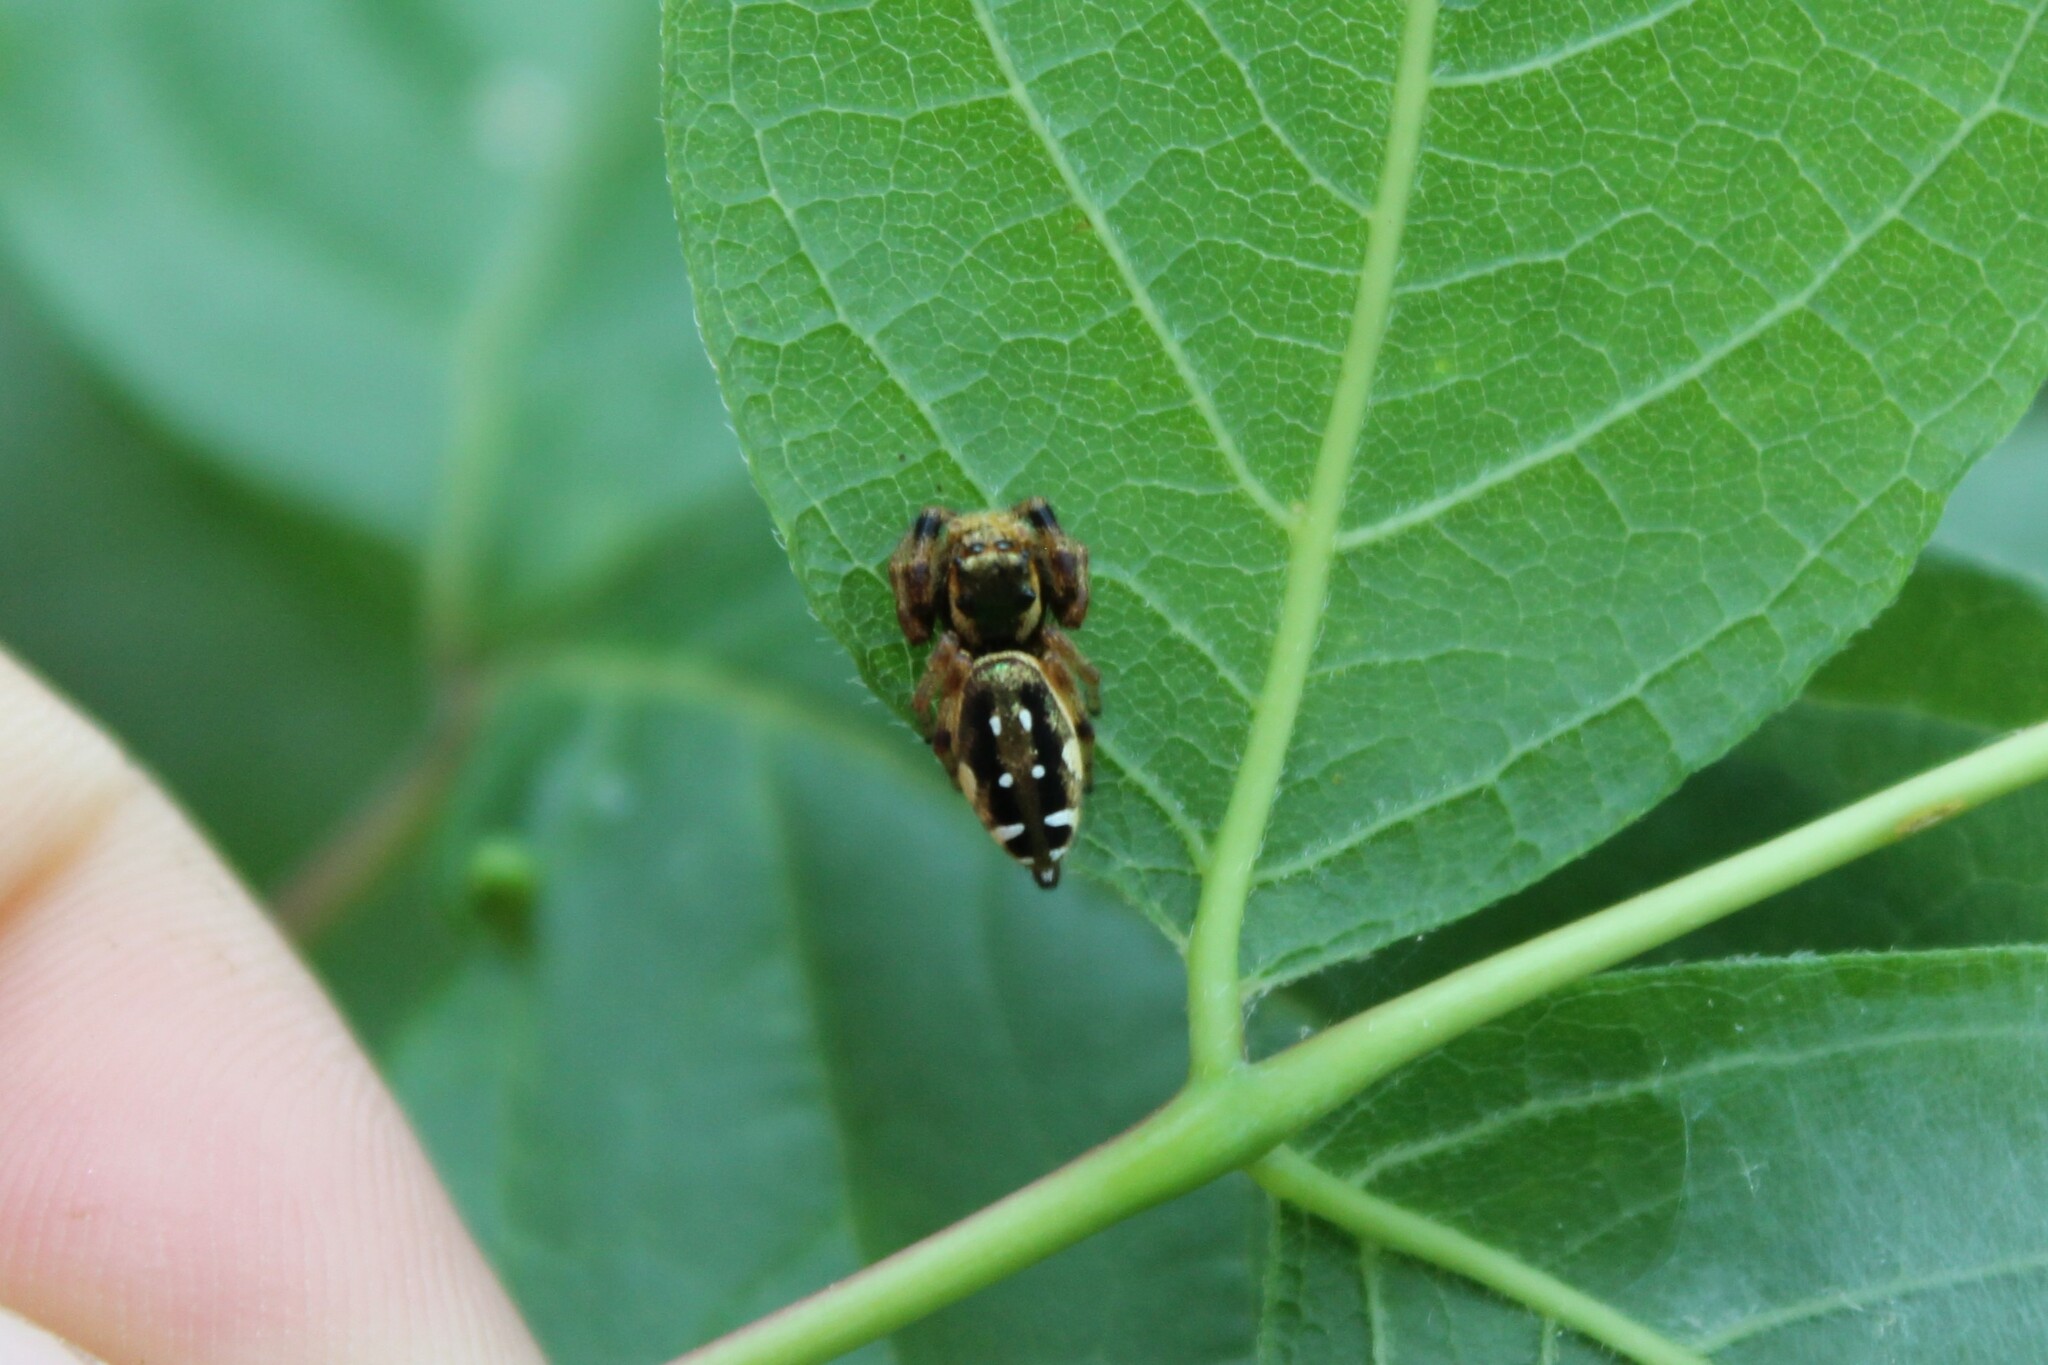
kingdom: Animalia
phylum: Arthropoda
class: Arachnida
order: Araneae
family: Salticidae
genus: Paraphidippus
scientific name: Paraphidippus aurantius
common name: Jumping spiders
